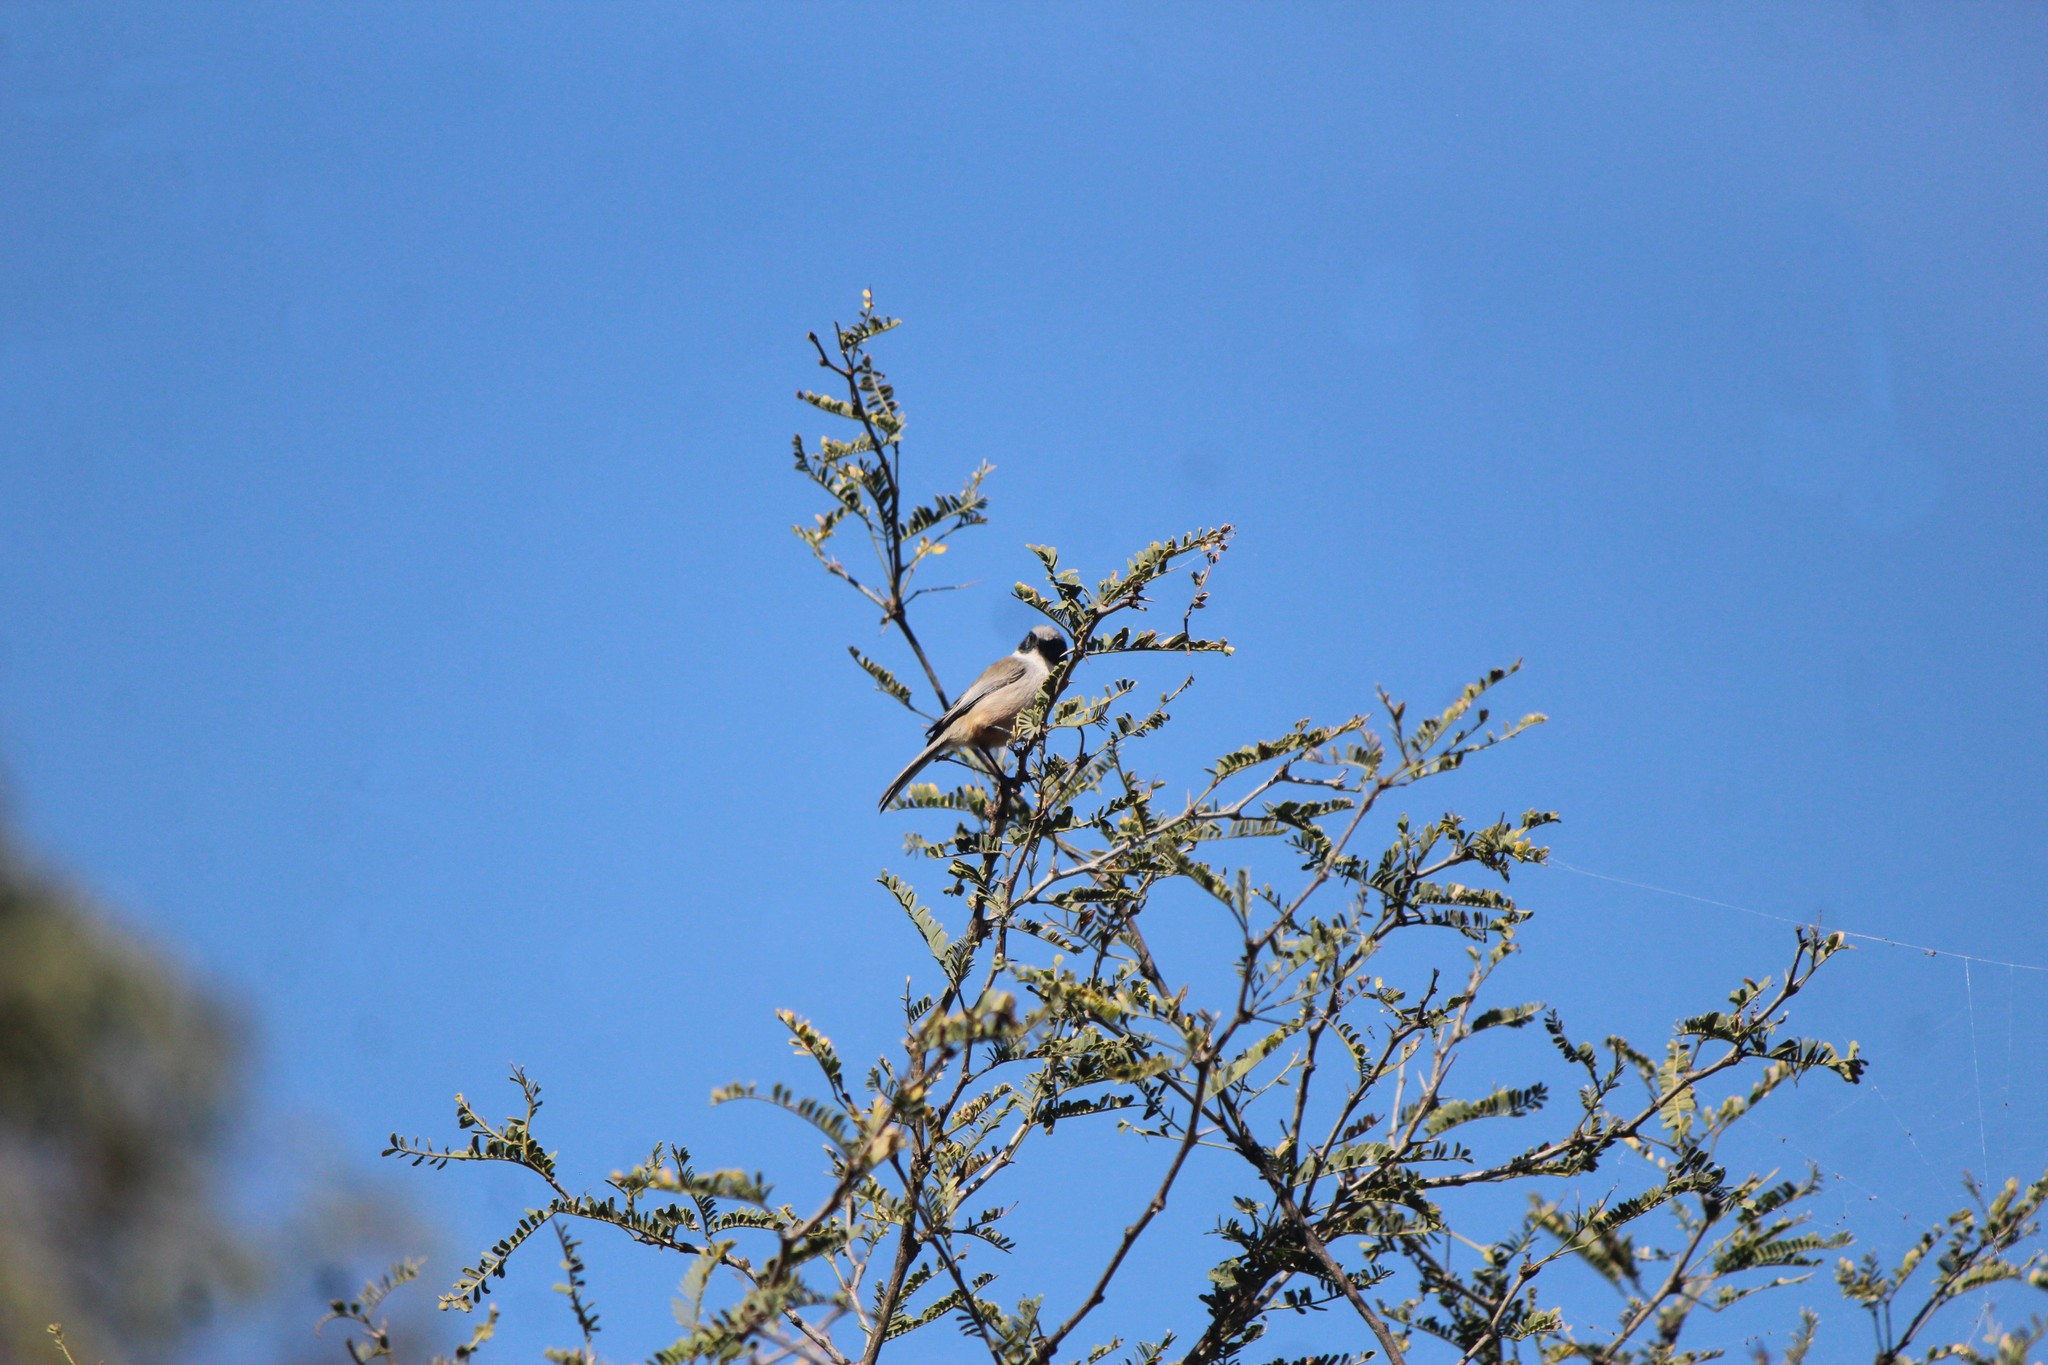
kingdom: Animalia
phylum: Chordata
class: Aves
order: Passeriformes
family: Aegithalidae
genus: Psaltriparus
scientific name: Psaltriparus minimus
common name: American bushtit
